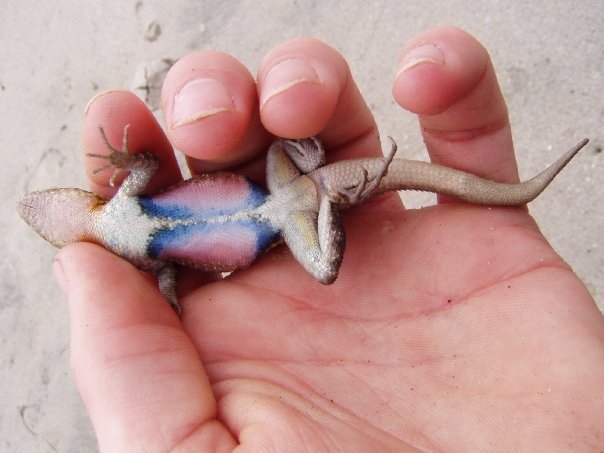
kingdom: Animalia
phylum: Chordata
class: Squamata
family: Phrynosomatidae
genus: Sceloporus
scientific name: Sceloporus variabilis
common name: Rosebelly lizard
